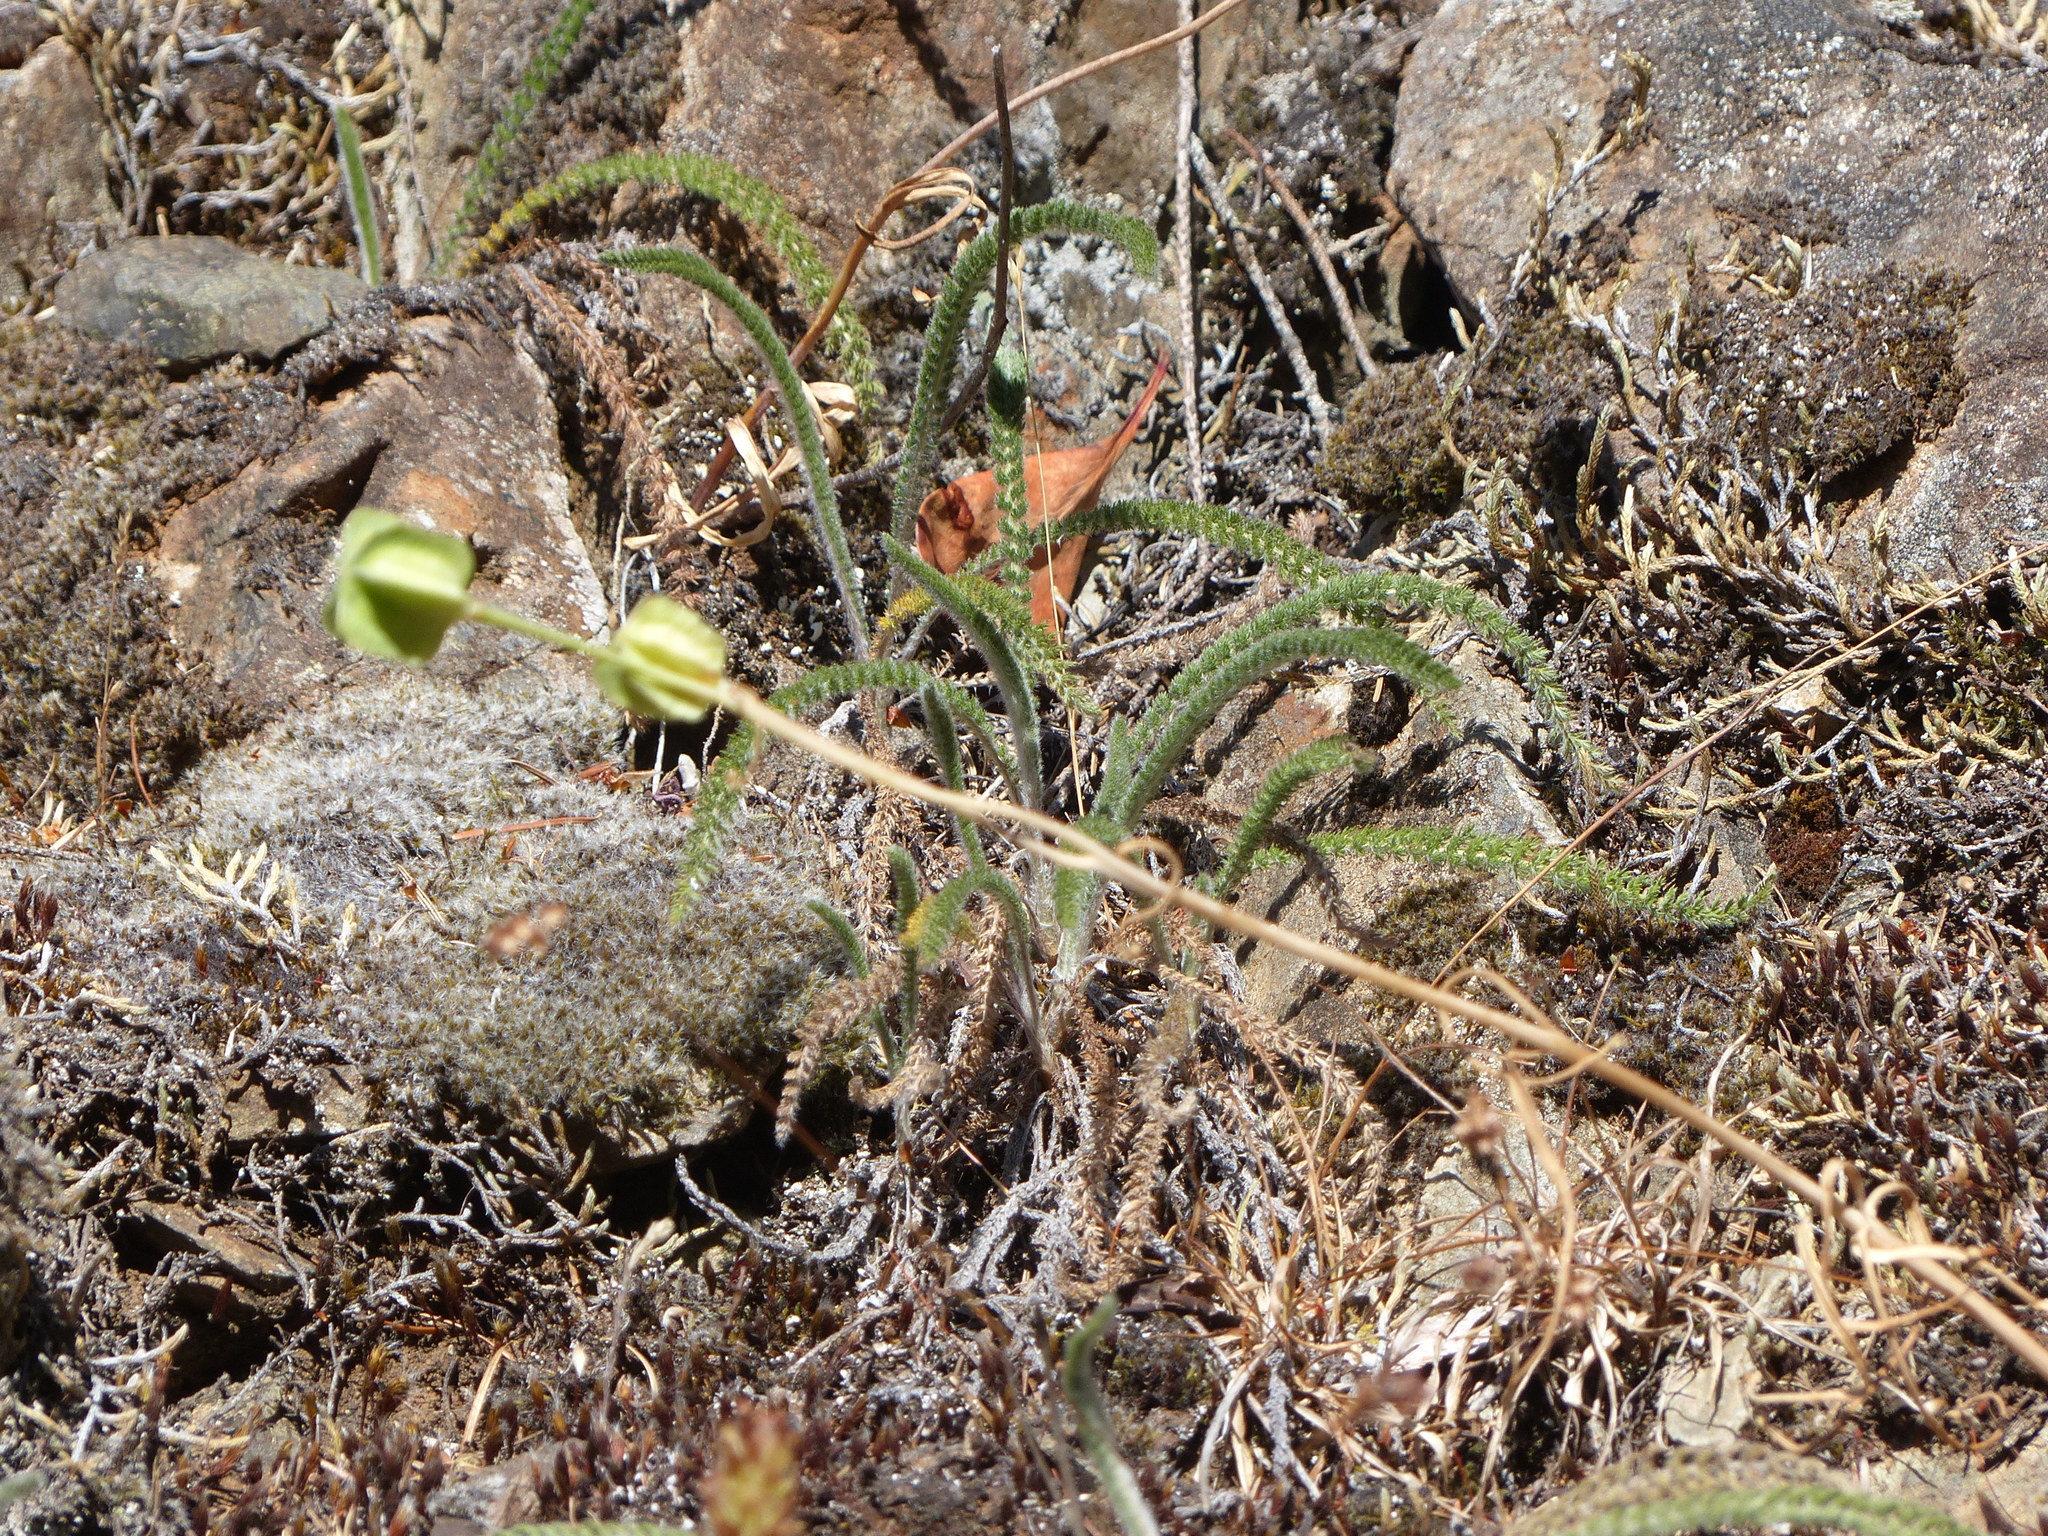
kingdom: Plantae
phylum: Tracheophyta
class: Liliopsida
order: Liliales
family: Liliaceae
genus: Fritillaria
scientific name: Fritillaria affinis
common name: Ojai fritillary
